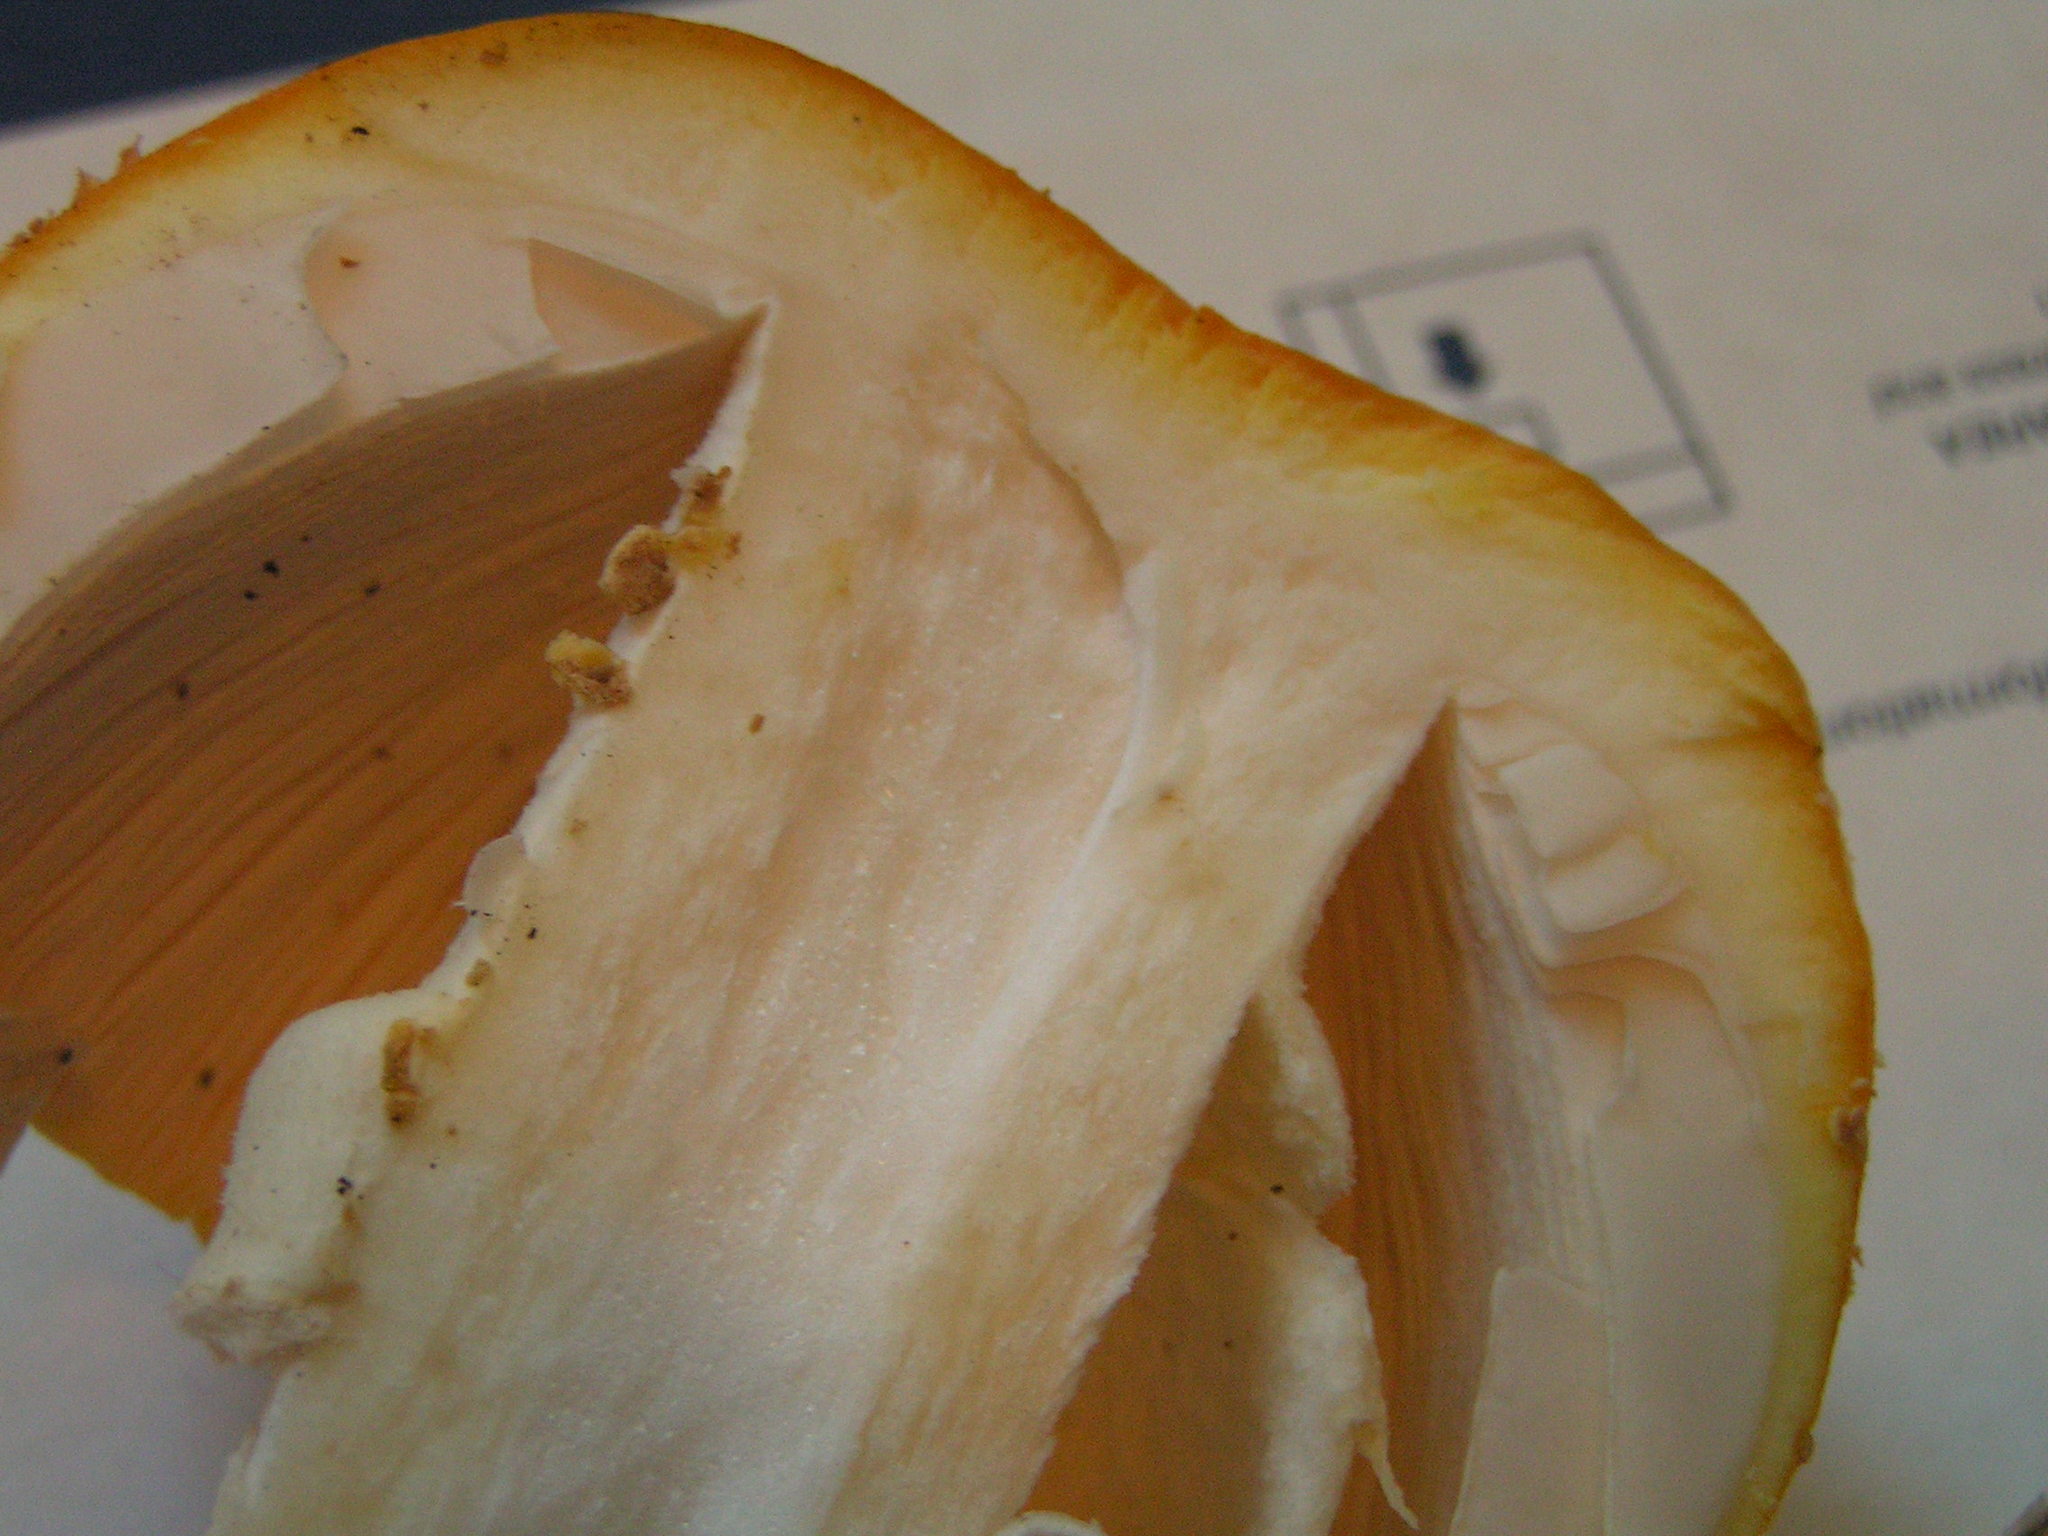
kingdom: Fungi
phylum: Basidiomycota
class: Agaricomycetes
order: Agaricales
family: Amanitaceae
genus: Amanita
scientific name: Amanita muscaria
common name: Fly agaric
